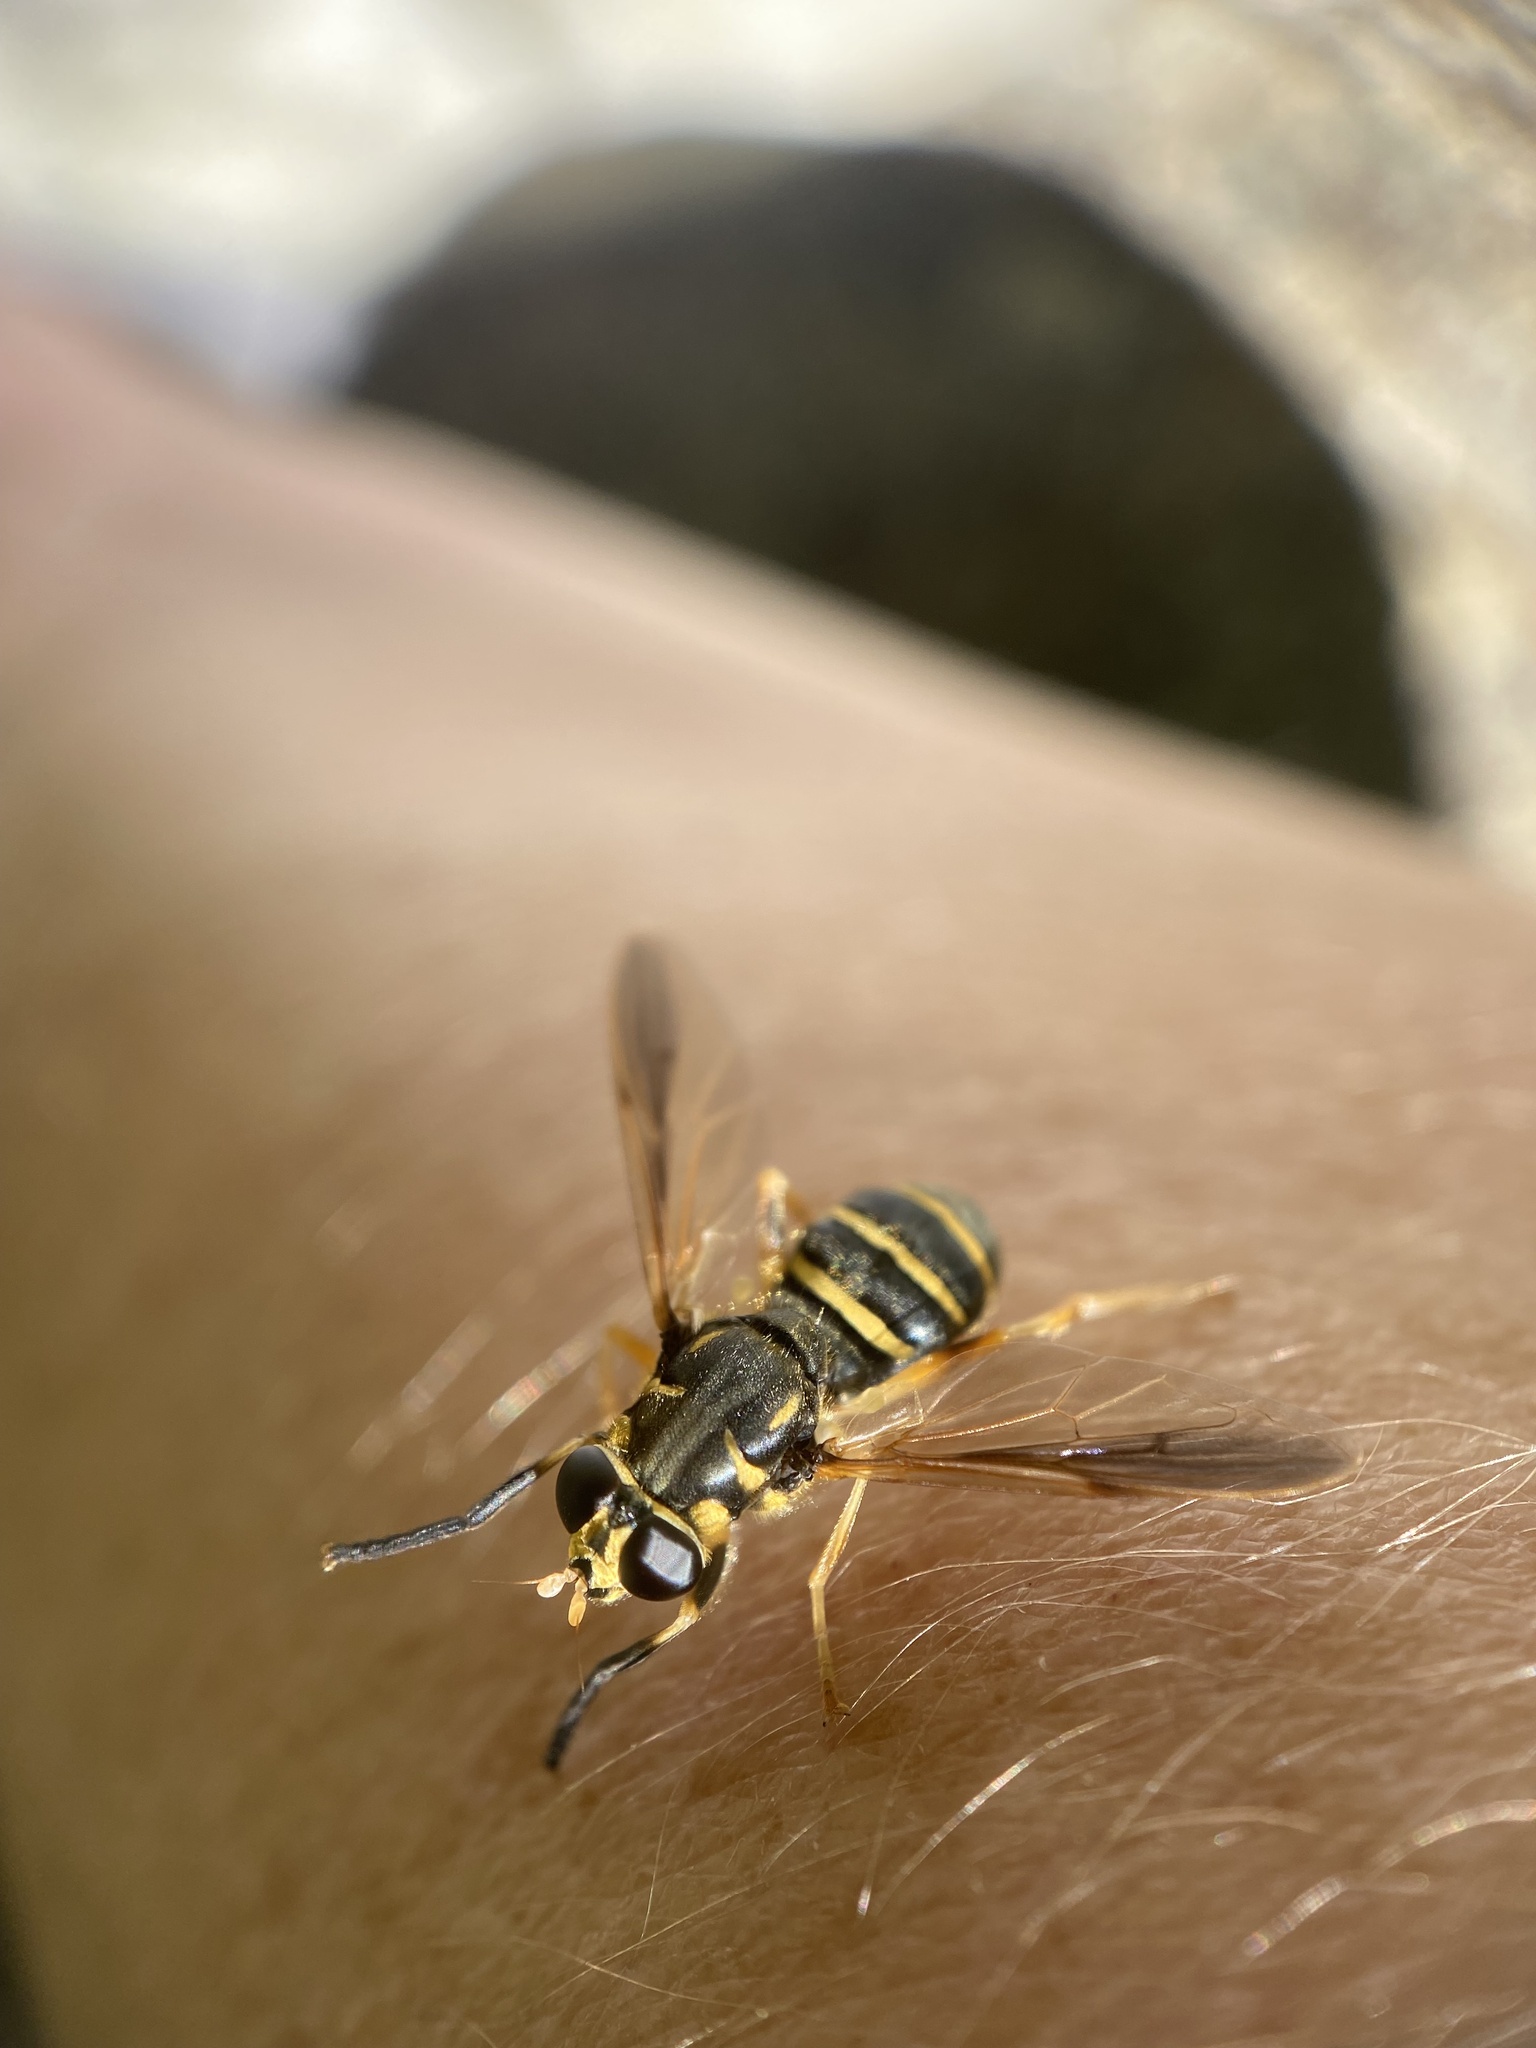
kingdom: Animalia
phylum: Arthropoda
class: Insecta
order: Diptera
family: Syrphidae
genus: Temnostoma
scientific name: Temnostoma trifasciatum
